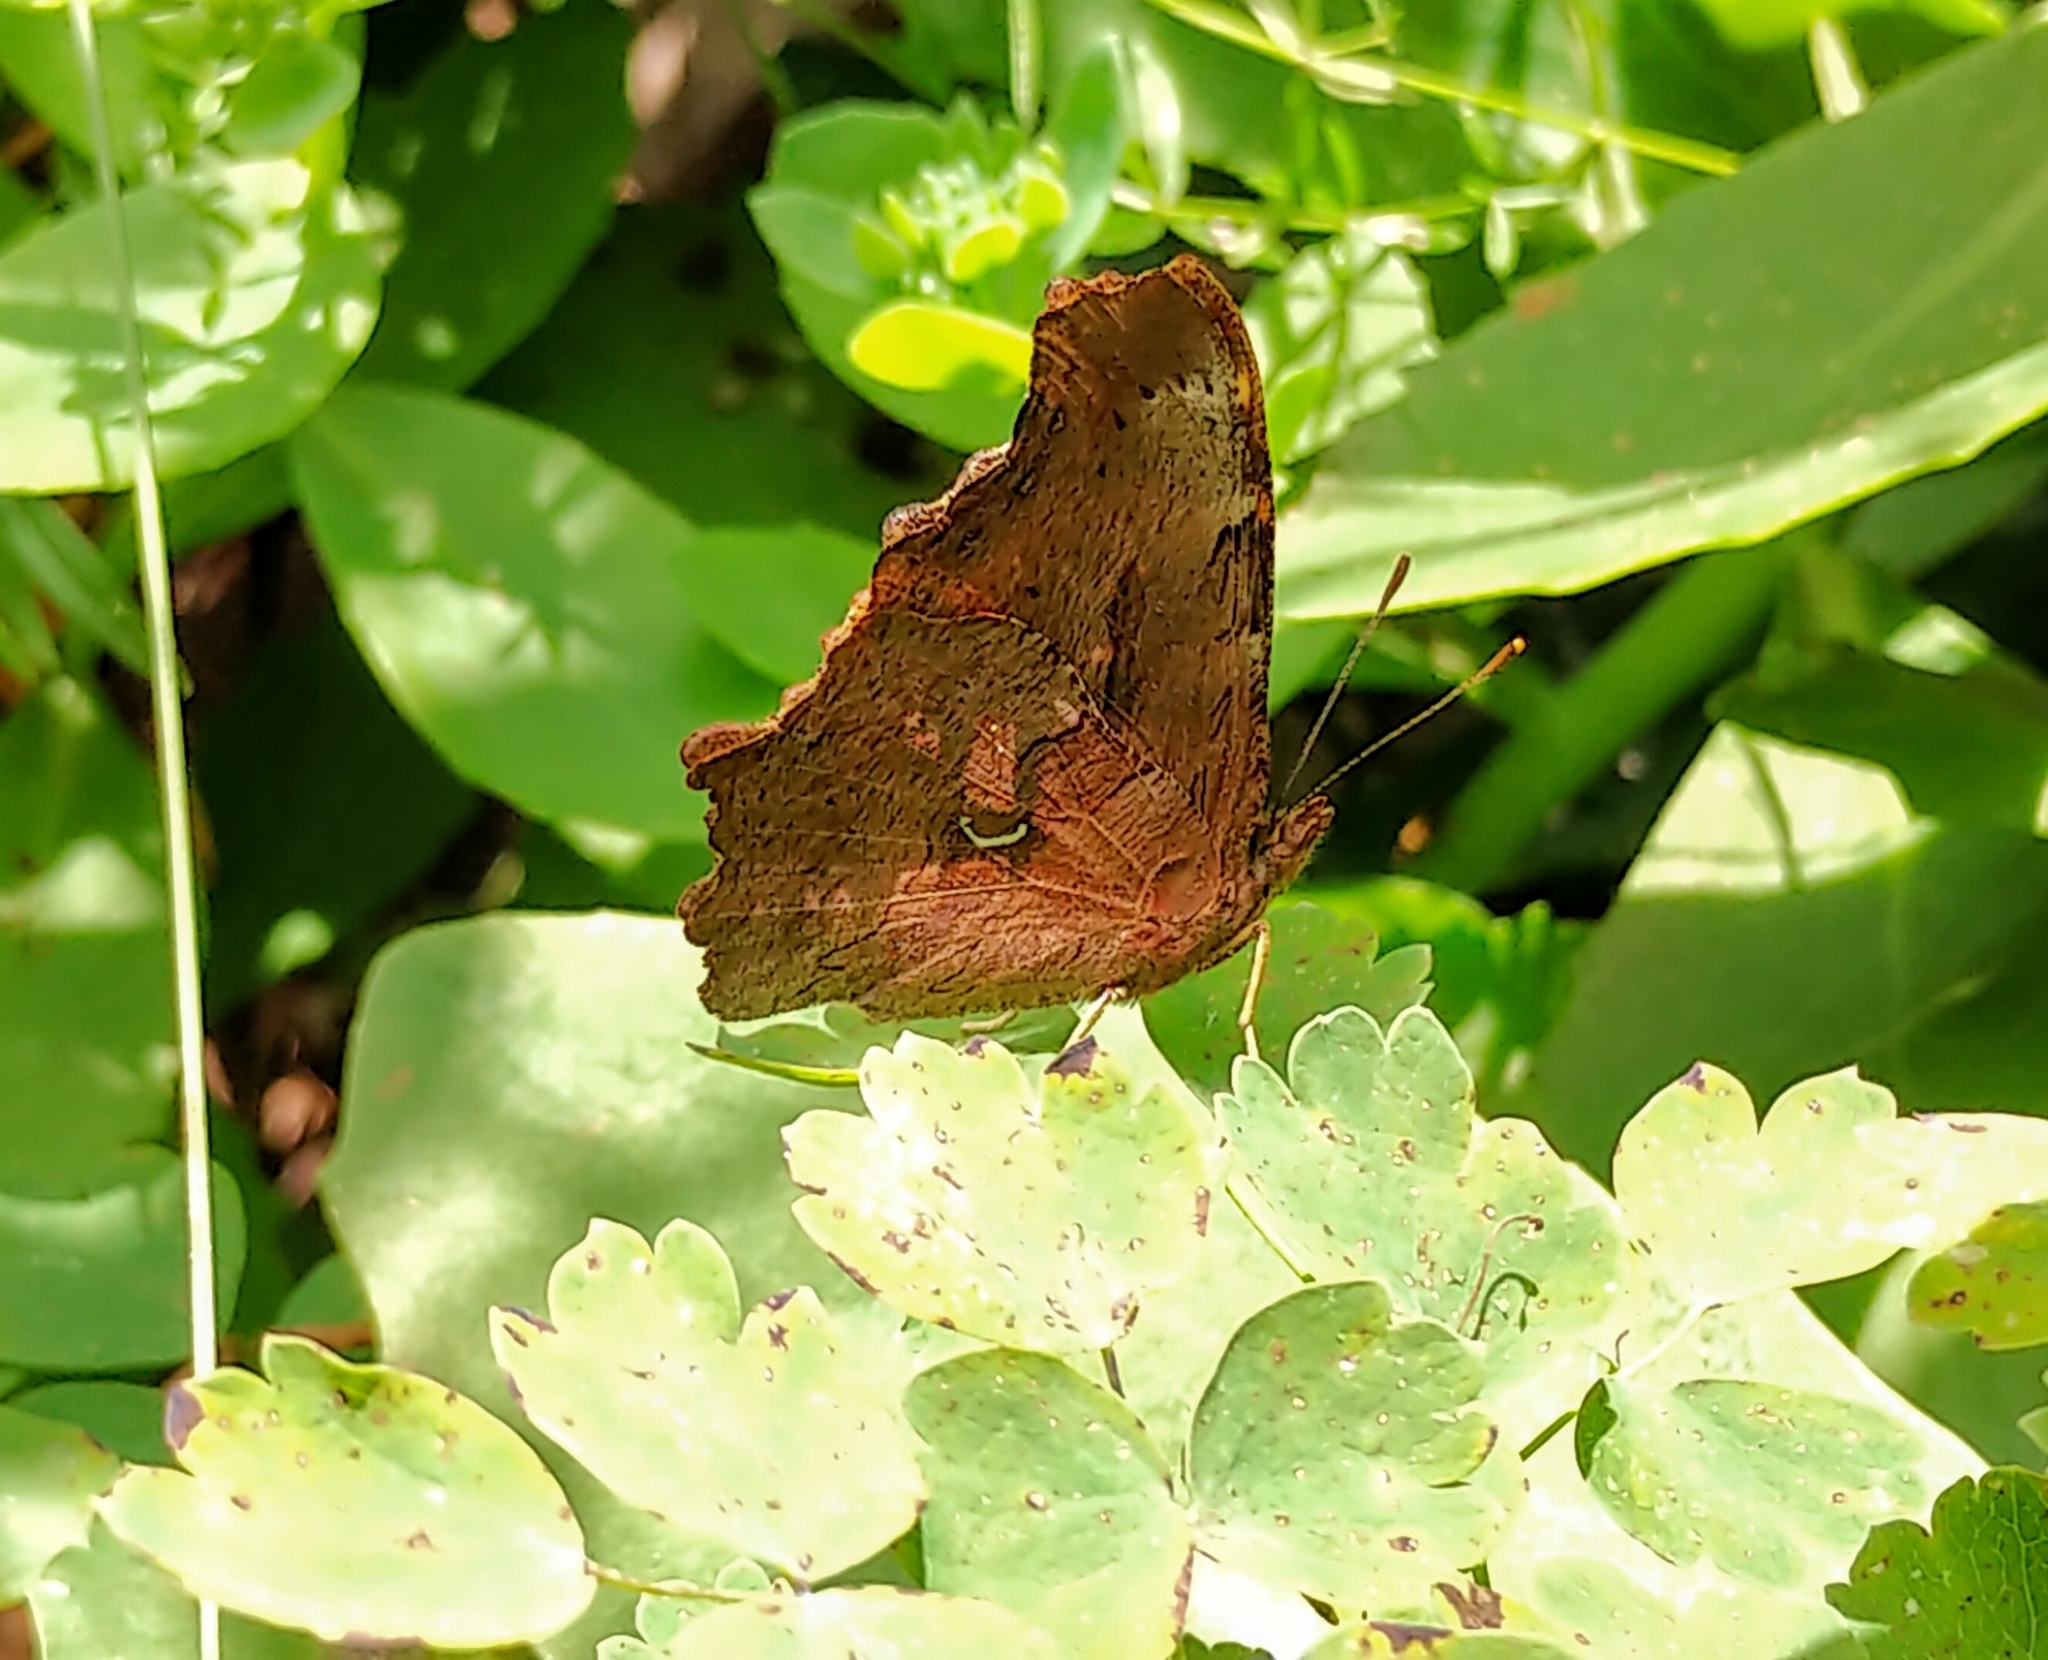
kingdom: Animalia
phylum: Arthropoda
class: Insecta
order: Lepidoptera
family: Nymphalidae
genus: Polygonia
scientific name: Polygonia satyrus
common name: Satyr angle wing
